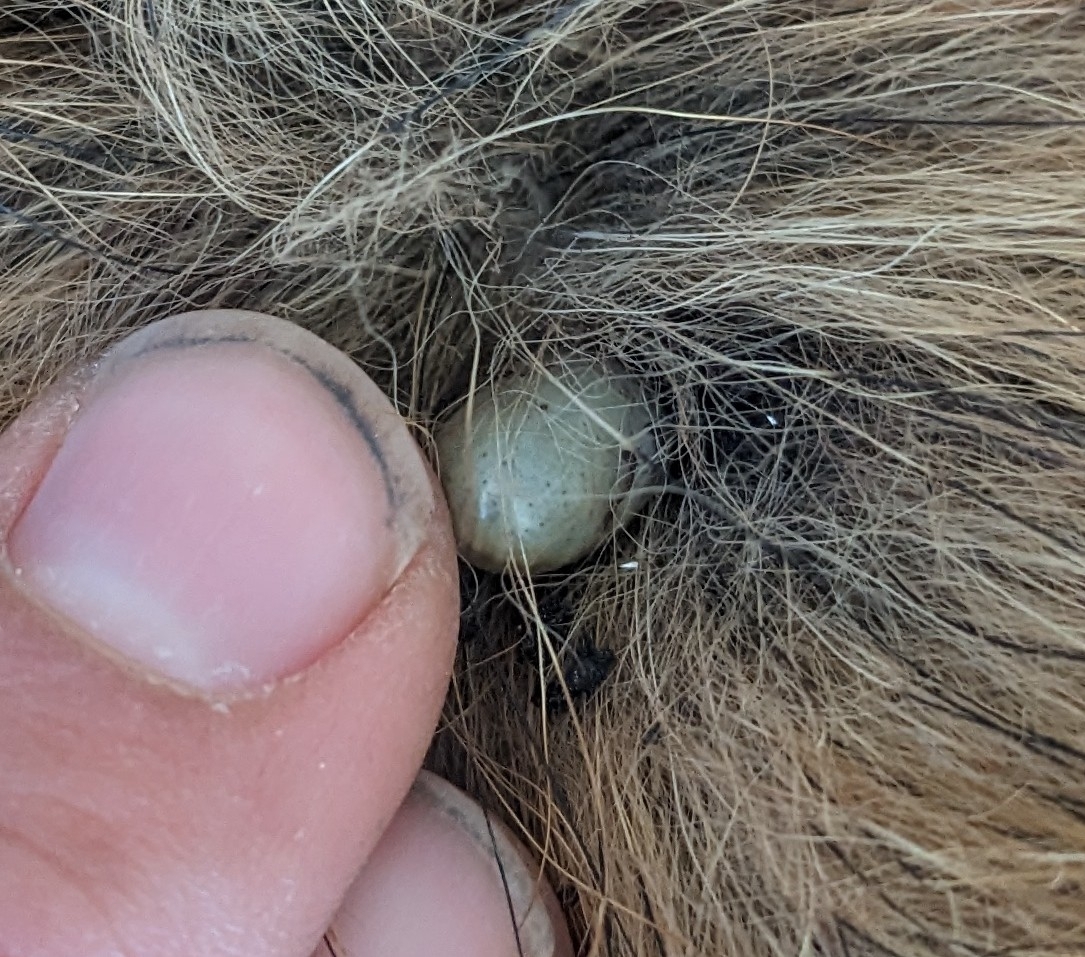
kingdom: Animalia
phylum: Arthropoda
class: Arachnida
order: Ixodida
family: Ixodidae
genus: Rhipicephalus
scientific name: Rhipicephalus sanguineus
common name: Brown dog tick
